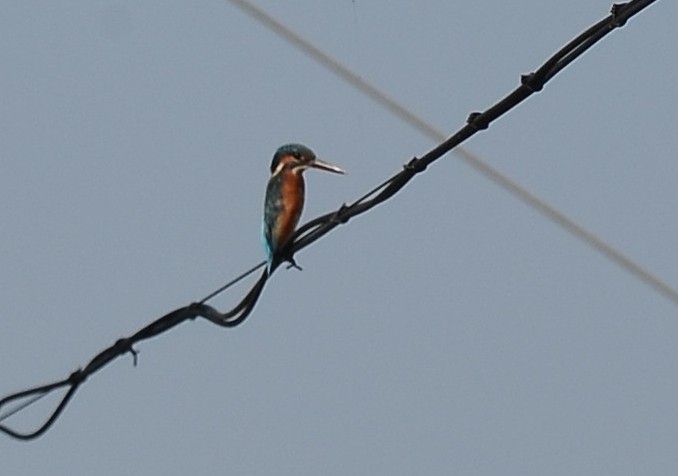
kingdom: Animalia
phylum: Chordata
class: Aves
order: Coraciiformes
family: Alcedinidae
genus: Alcedo
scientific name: Alcedo atthis
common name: Common kingfisher
